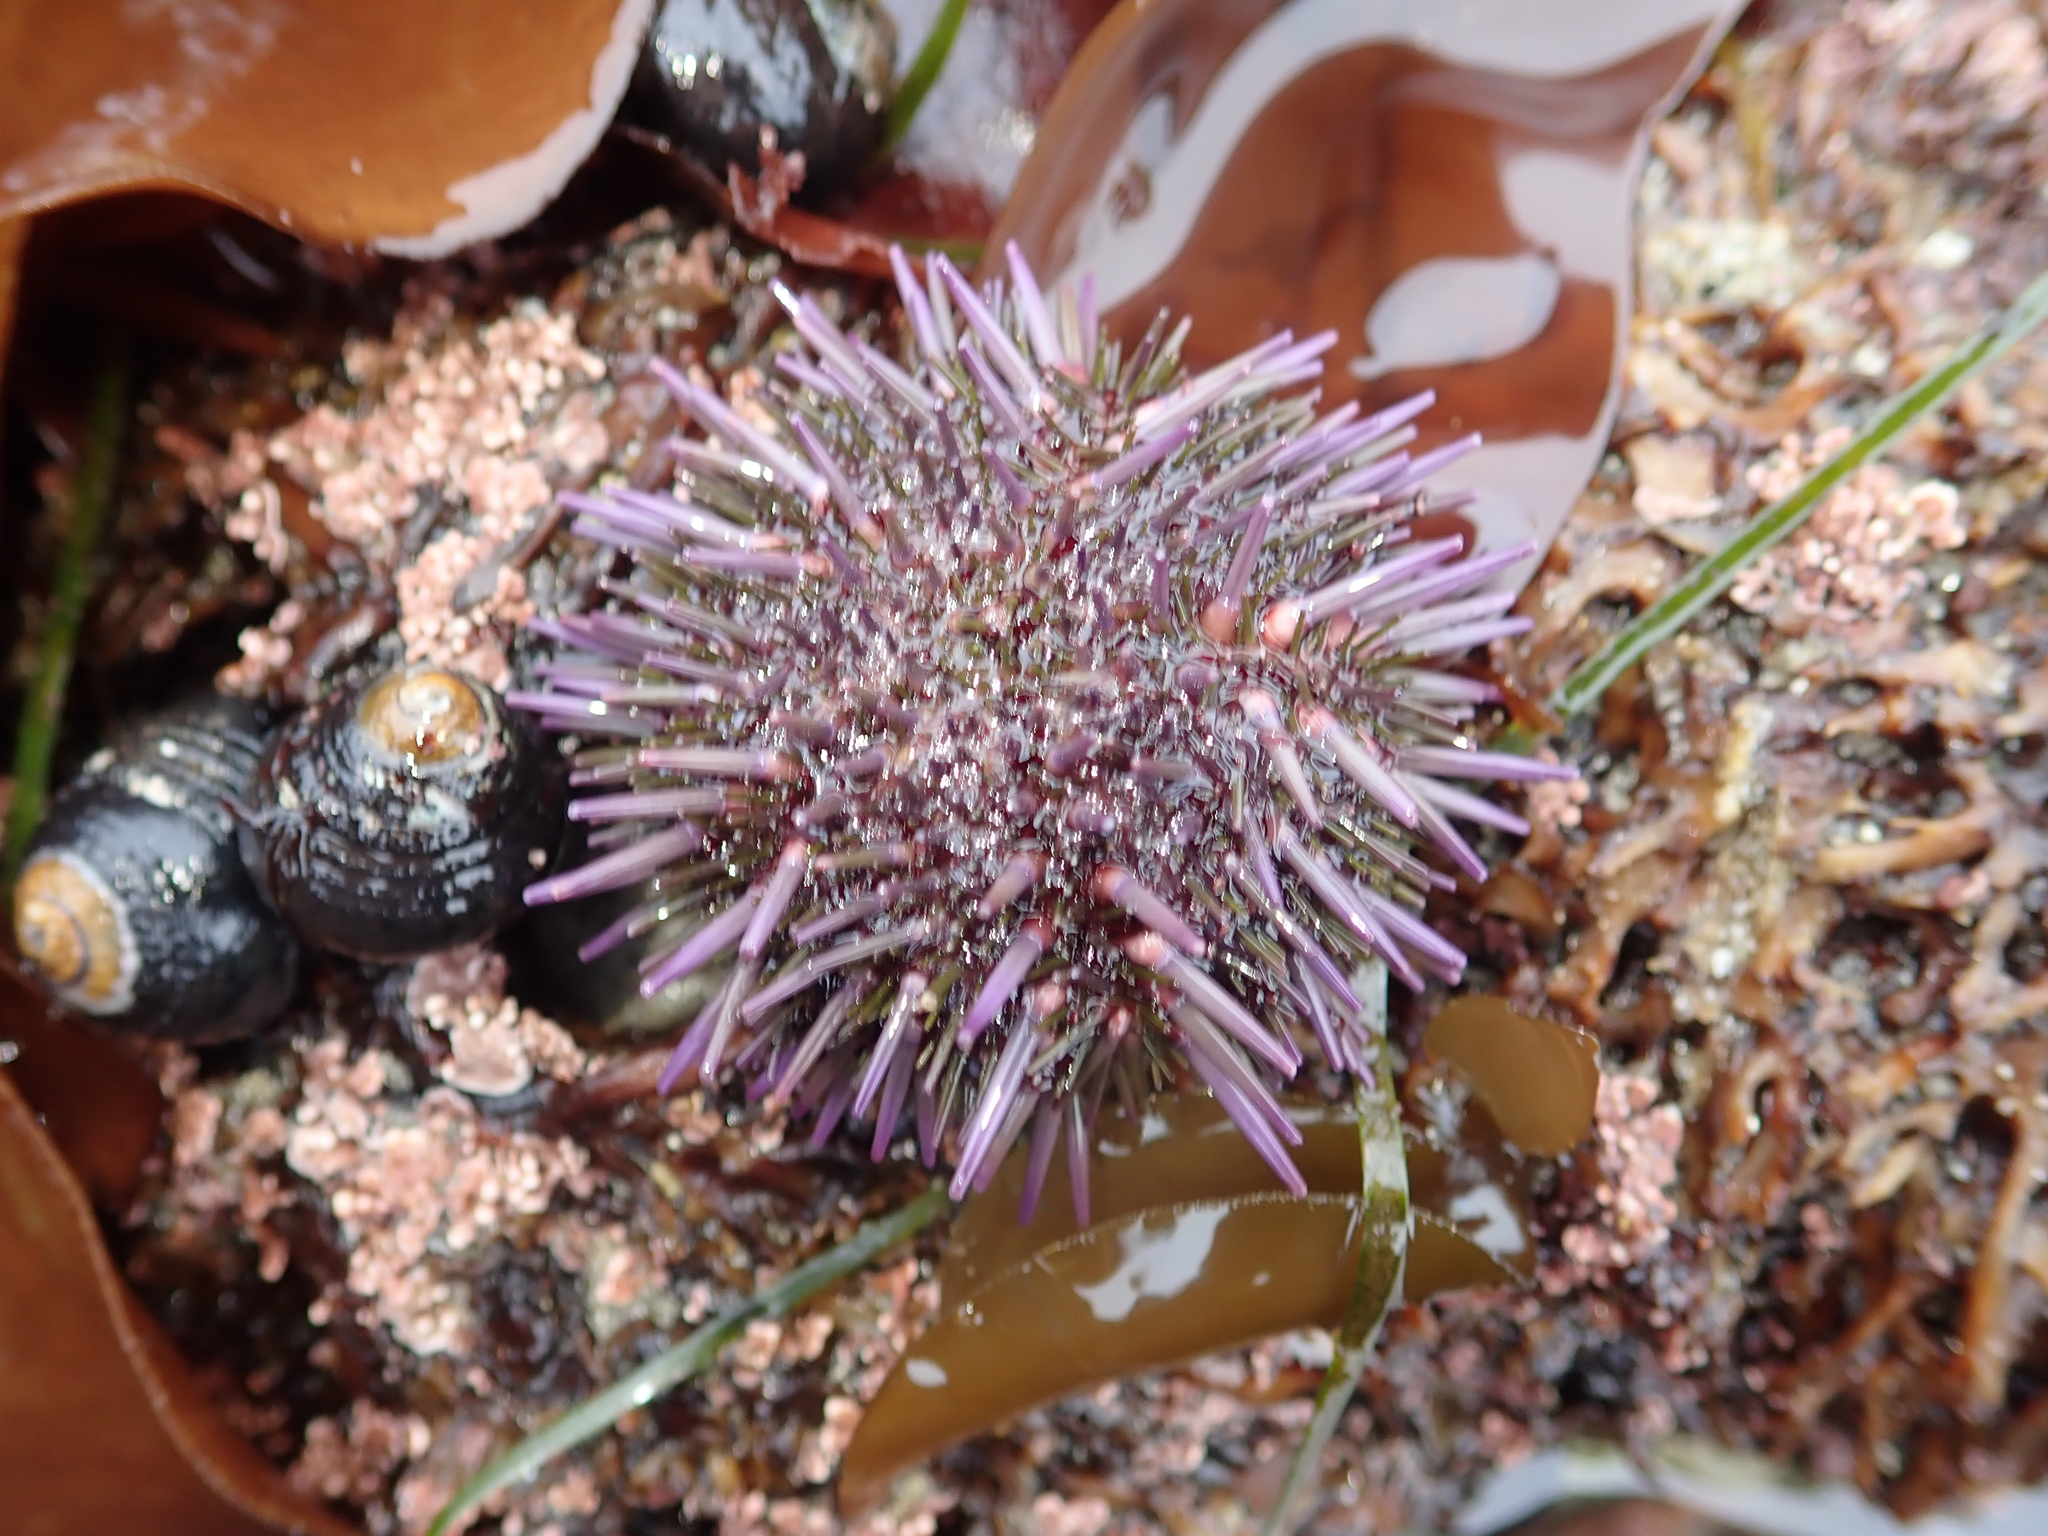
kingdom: Animalia
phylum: Echinodermata
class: Echinoidea
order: Camarodonta
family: Strongylocentrotidae
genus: Strongylocentrotus
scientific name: Strongylocentrotus purpuratus
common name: Purple sea urchin
